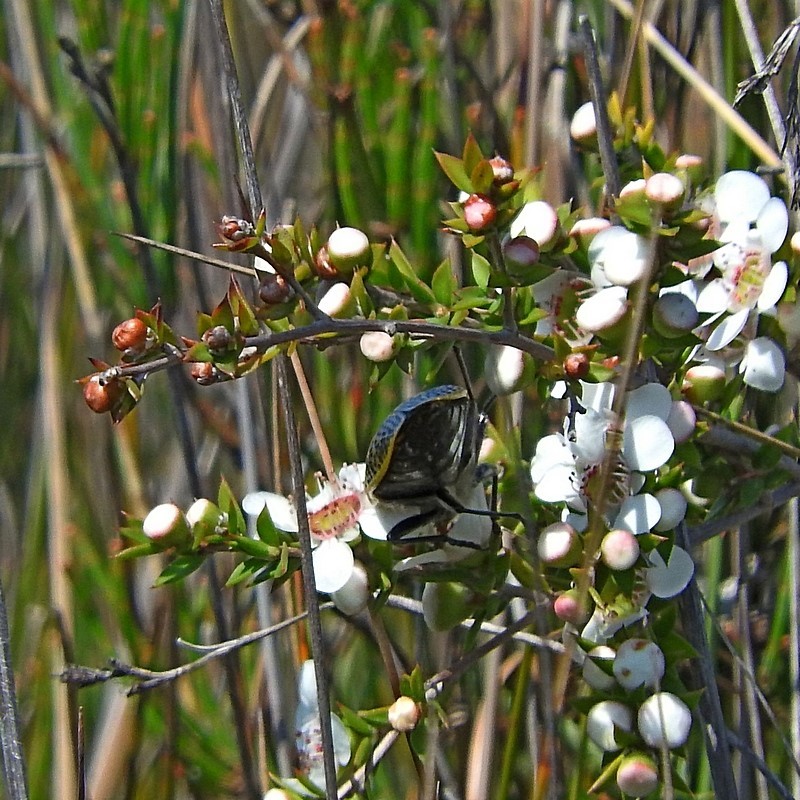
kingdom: Animalia
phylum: Arthropoda
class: Insecta
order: Coleoptera
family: Buprestidae
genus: Stigmodera
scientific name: Stigmodera macularia
